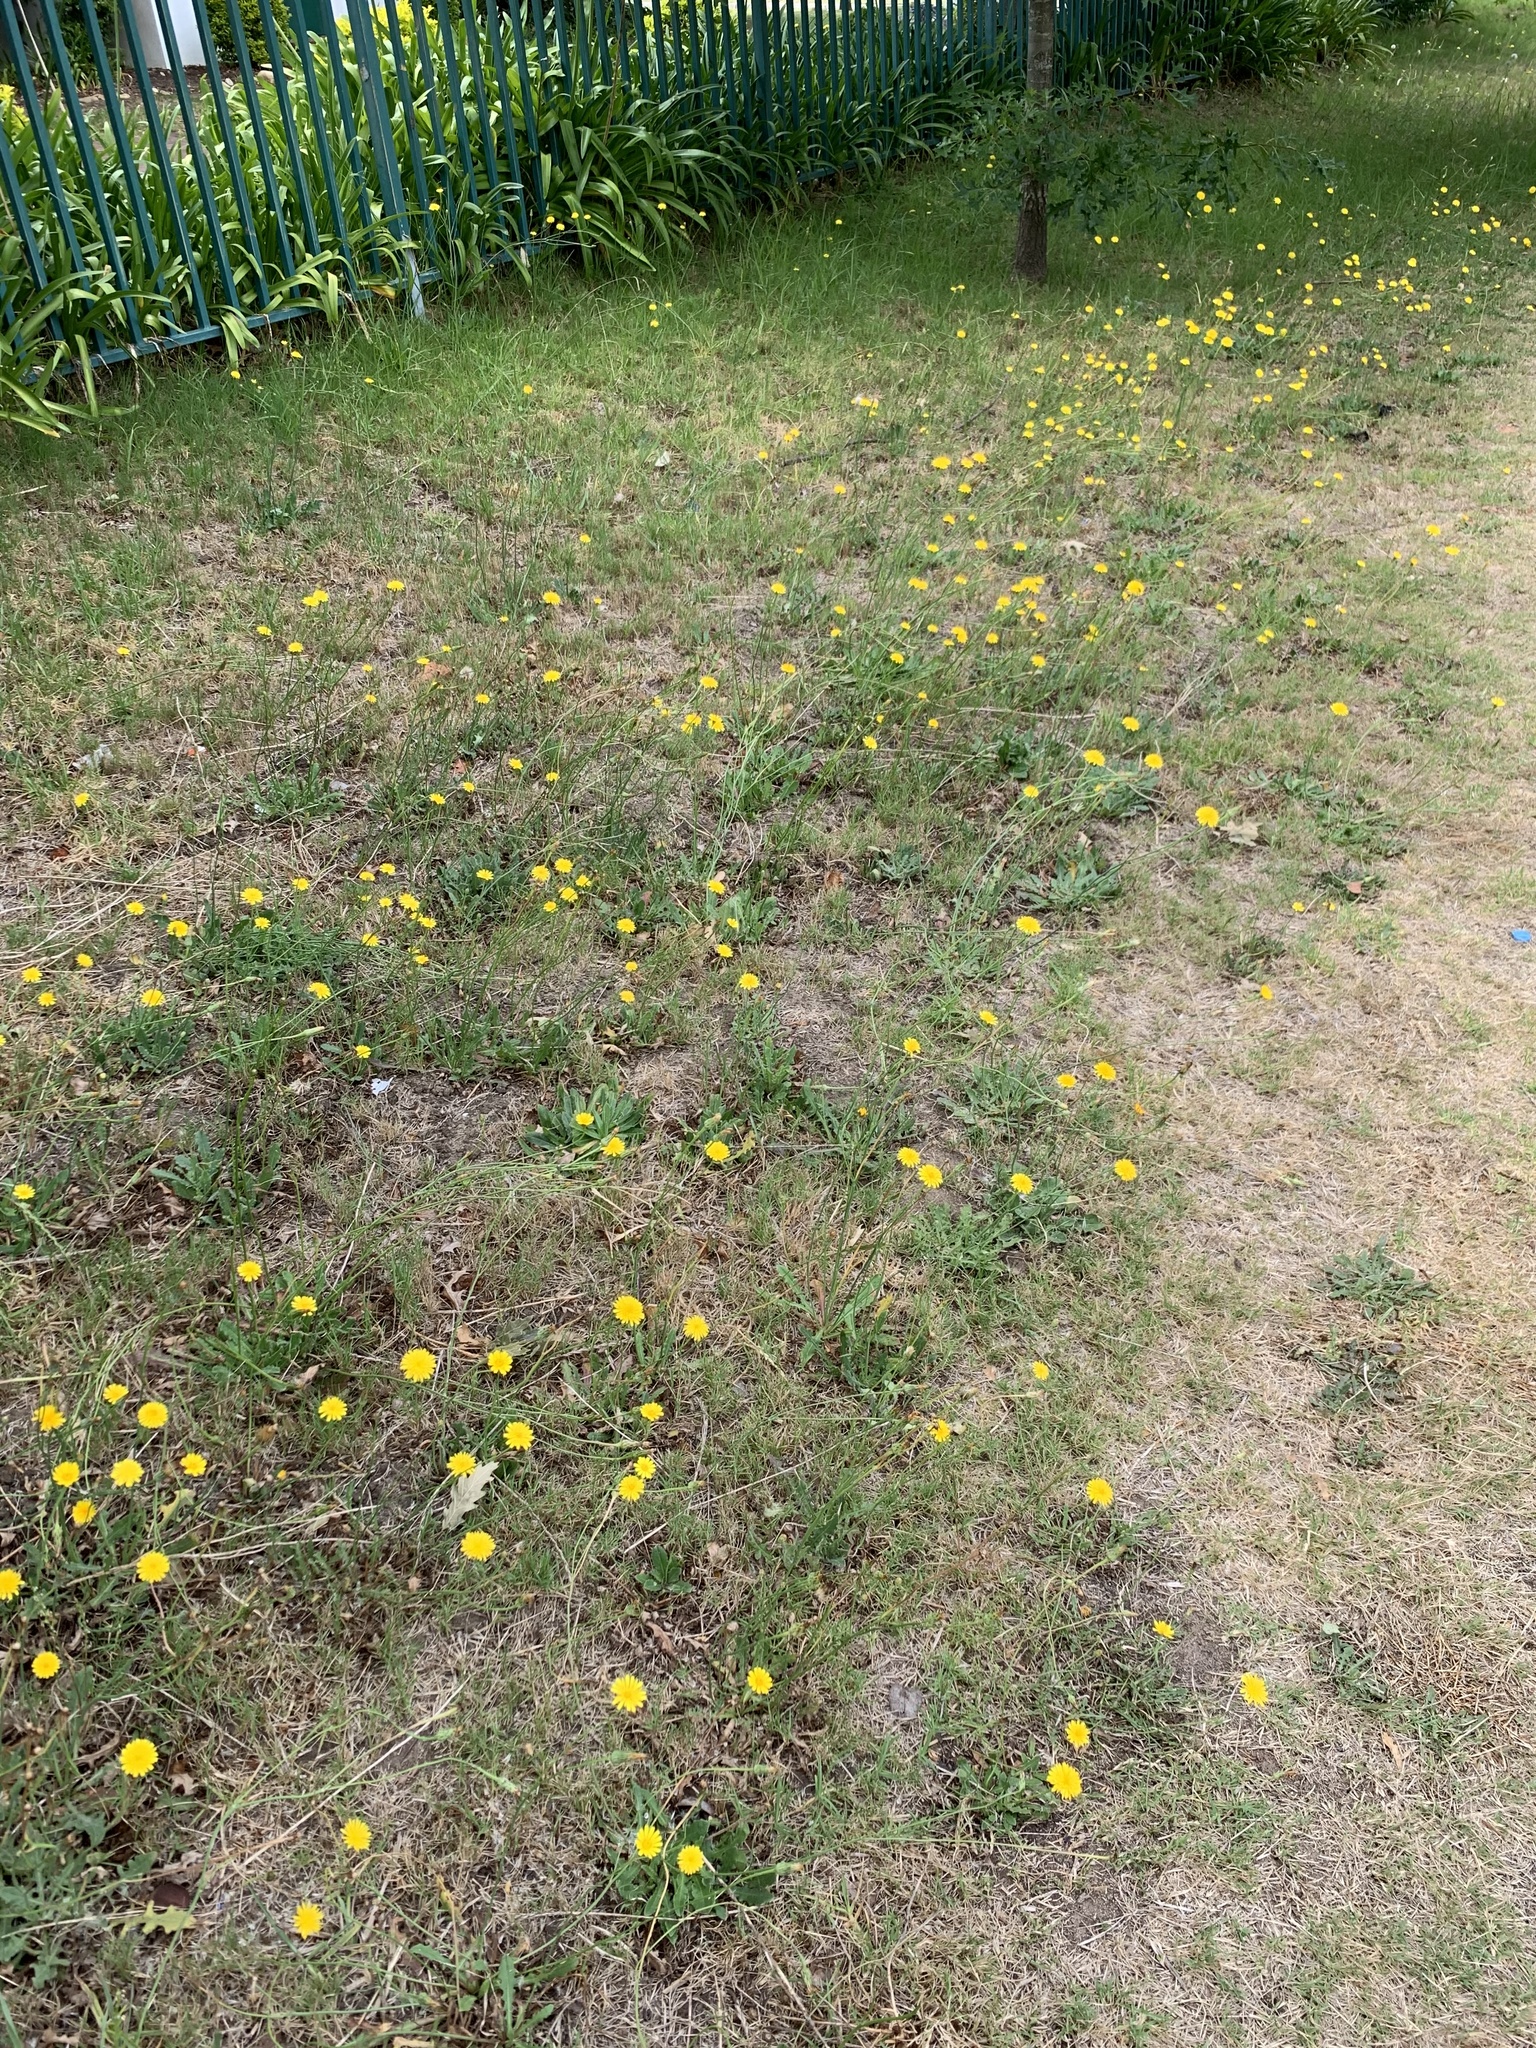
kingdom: Plantae
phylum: Tracheophyta
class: Magnoliopsida
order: Asterales
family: Asteraceae
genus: Hypochaeris
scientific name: Hypochaeris radicata
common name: Flatweed
